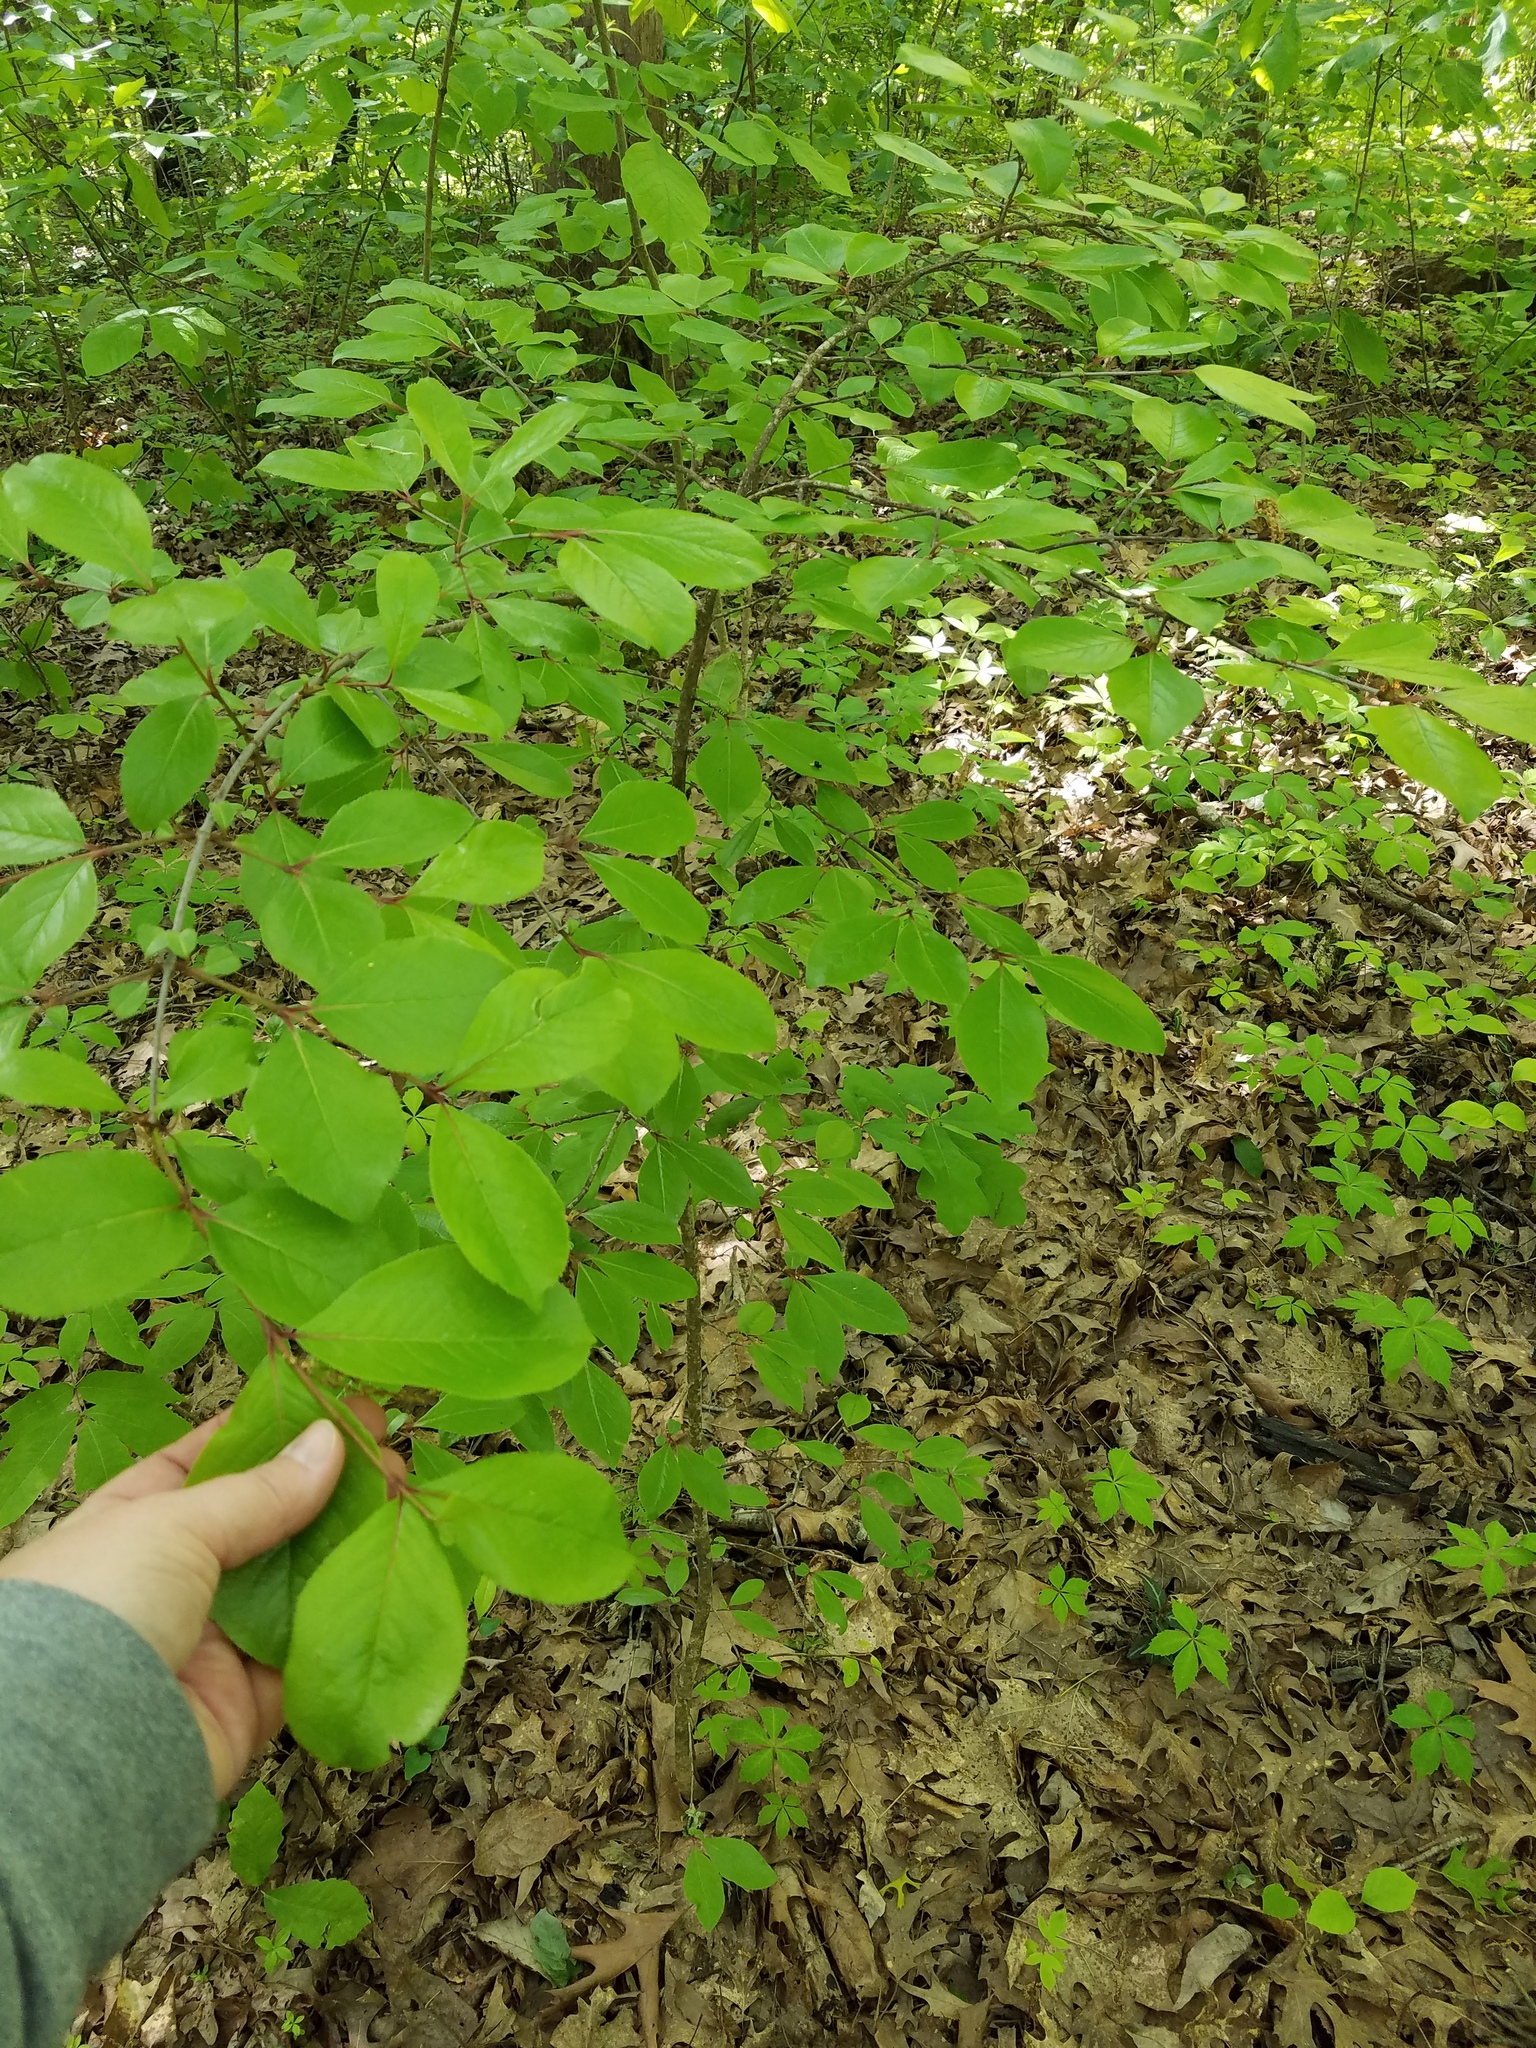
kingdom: Plantae
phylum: Tracheophyta
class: Magnoliopsida
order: Dipsacales
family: Viburnaceae
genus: Viburnum
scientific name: Viburnum rufidulum
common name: Blue haw
